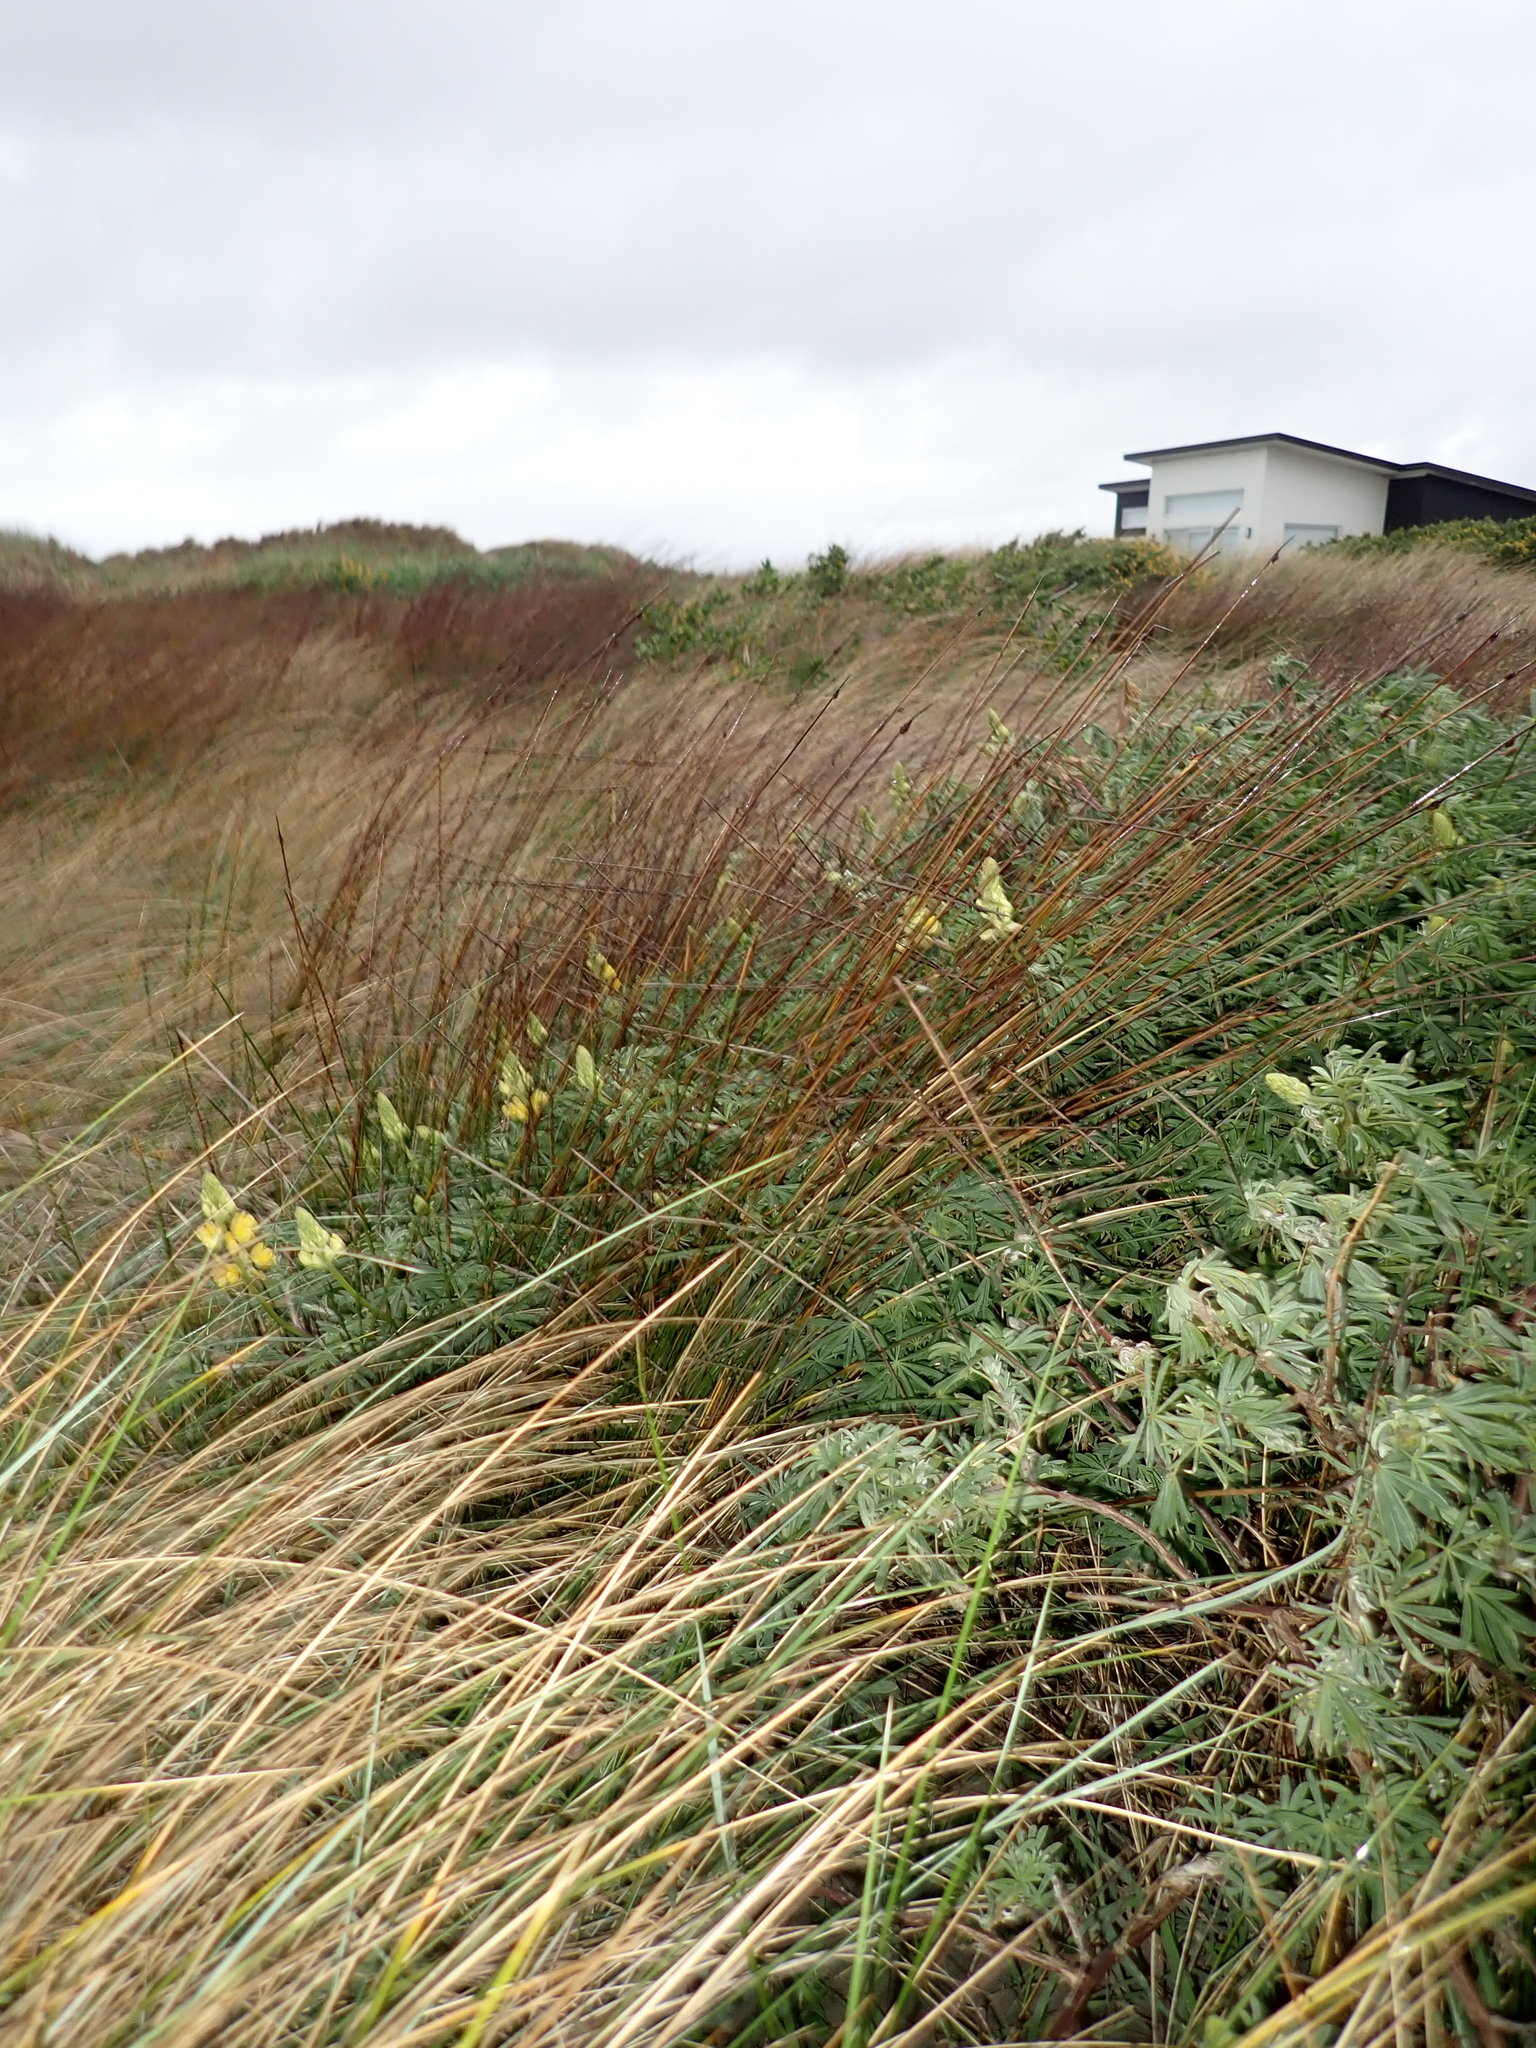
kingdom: Plantae
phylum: Tracheophyta
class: Magnoliopsida
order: Fabales
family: Fabaceae
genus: Lupinus
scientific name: Lupinus arboreus
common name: Yellow bush lupine
